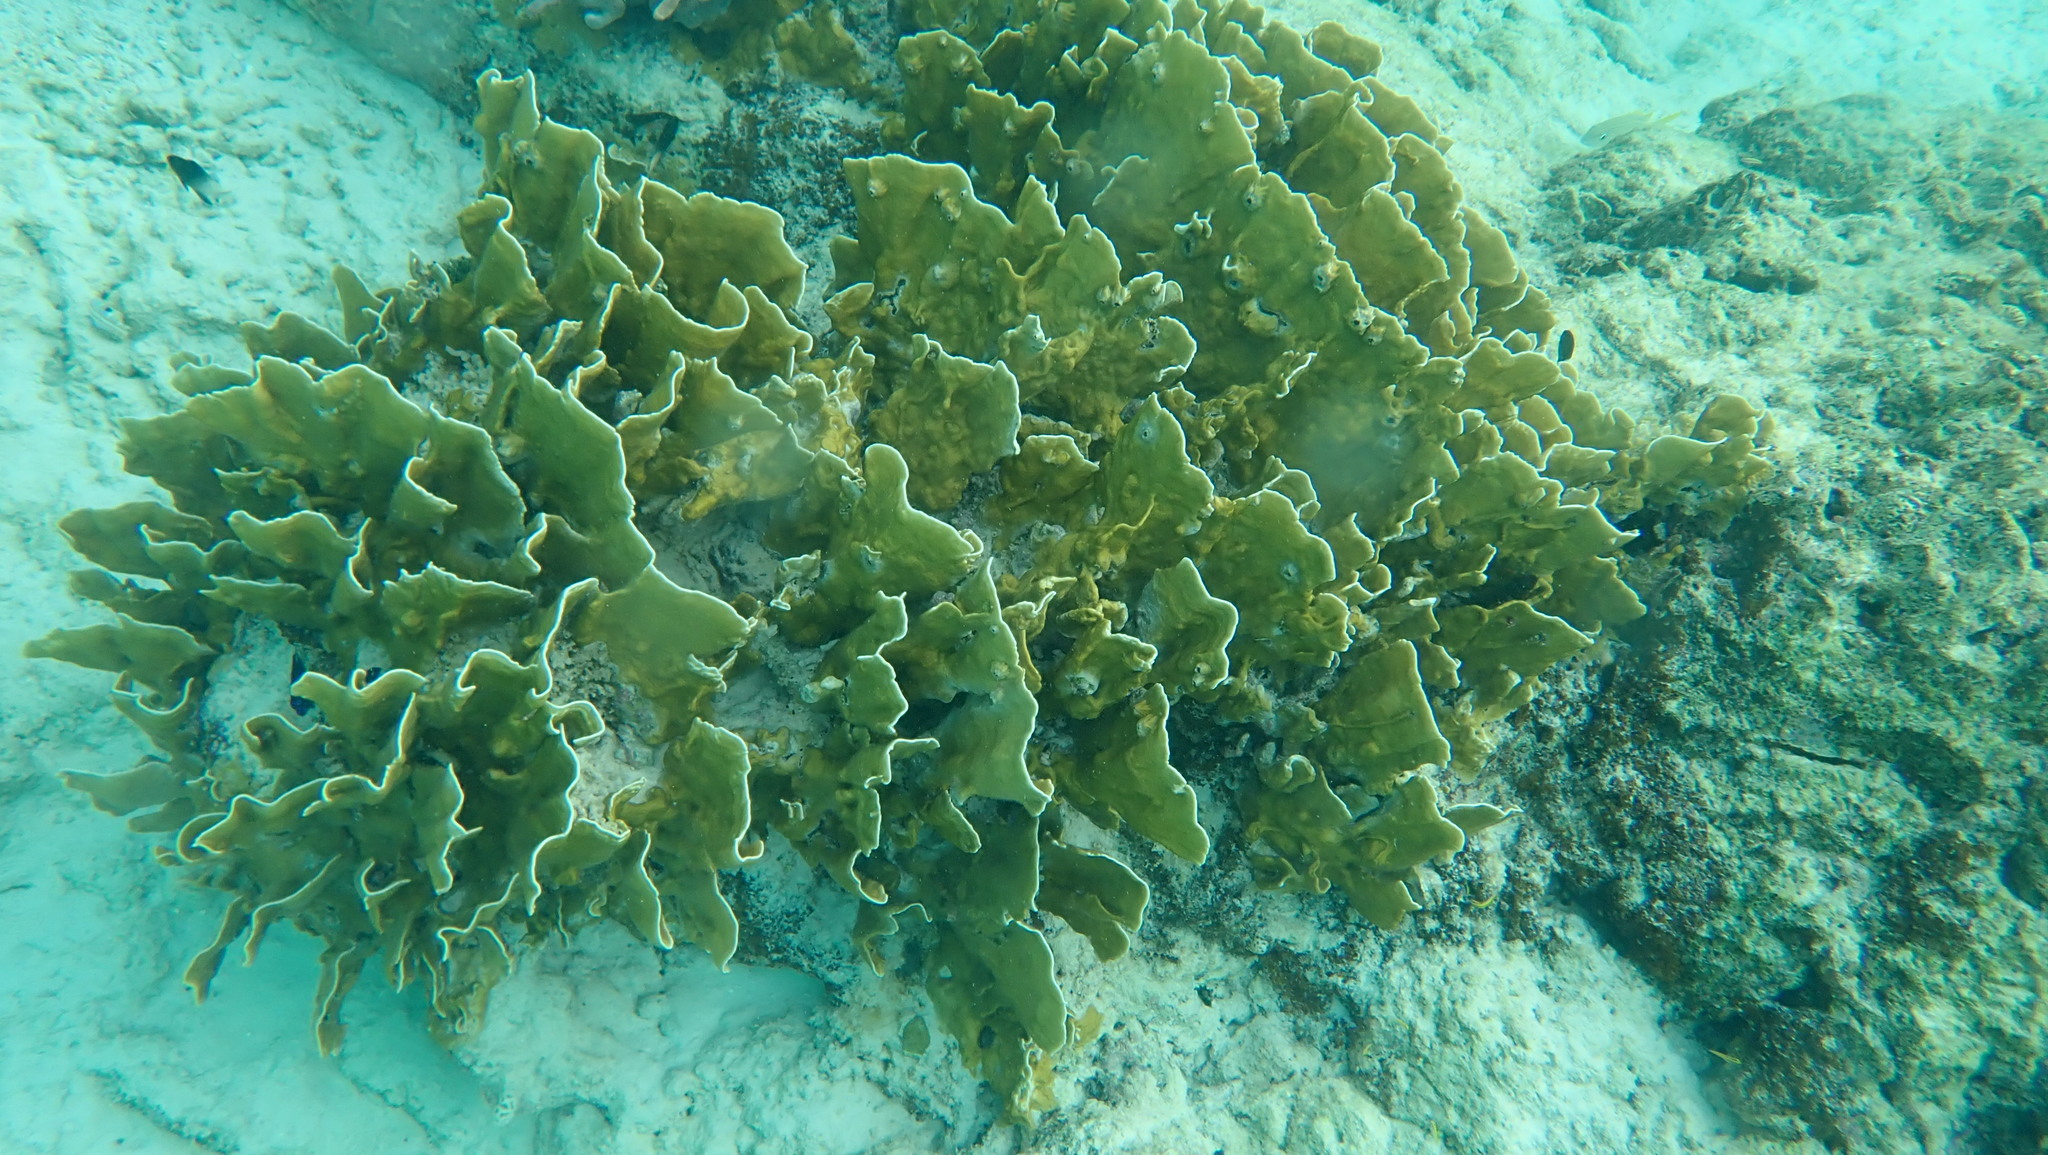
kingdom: Animalia
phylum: Cnidaria
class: Hydrozoa
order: Anthoathecata
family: Milleporidae
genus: Millepora
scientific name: Millepora complanata
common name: Bladed fire coral
